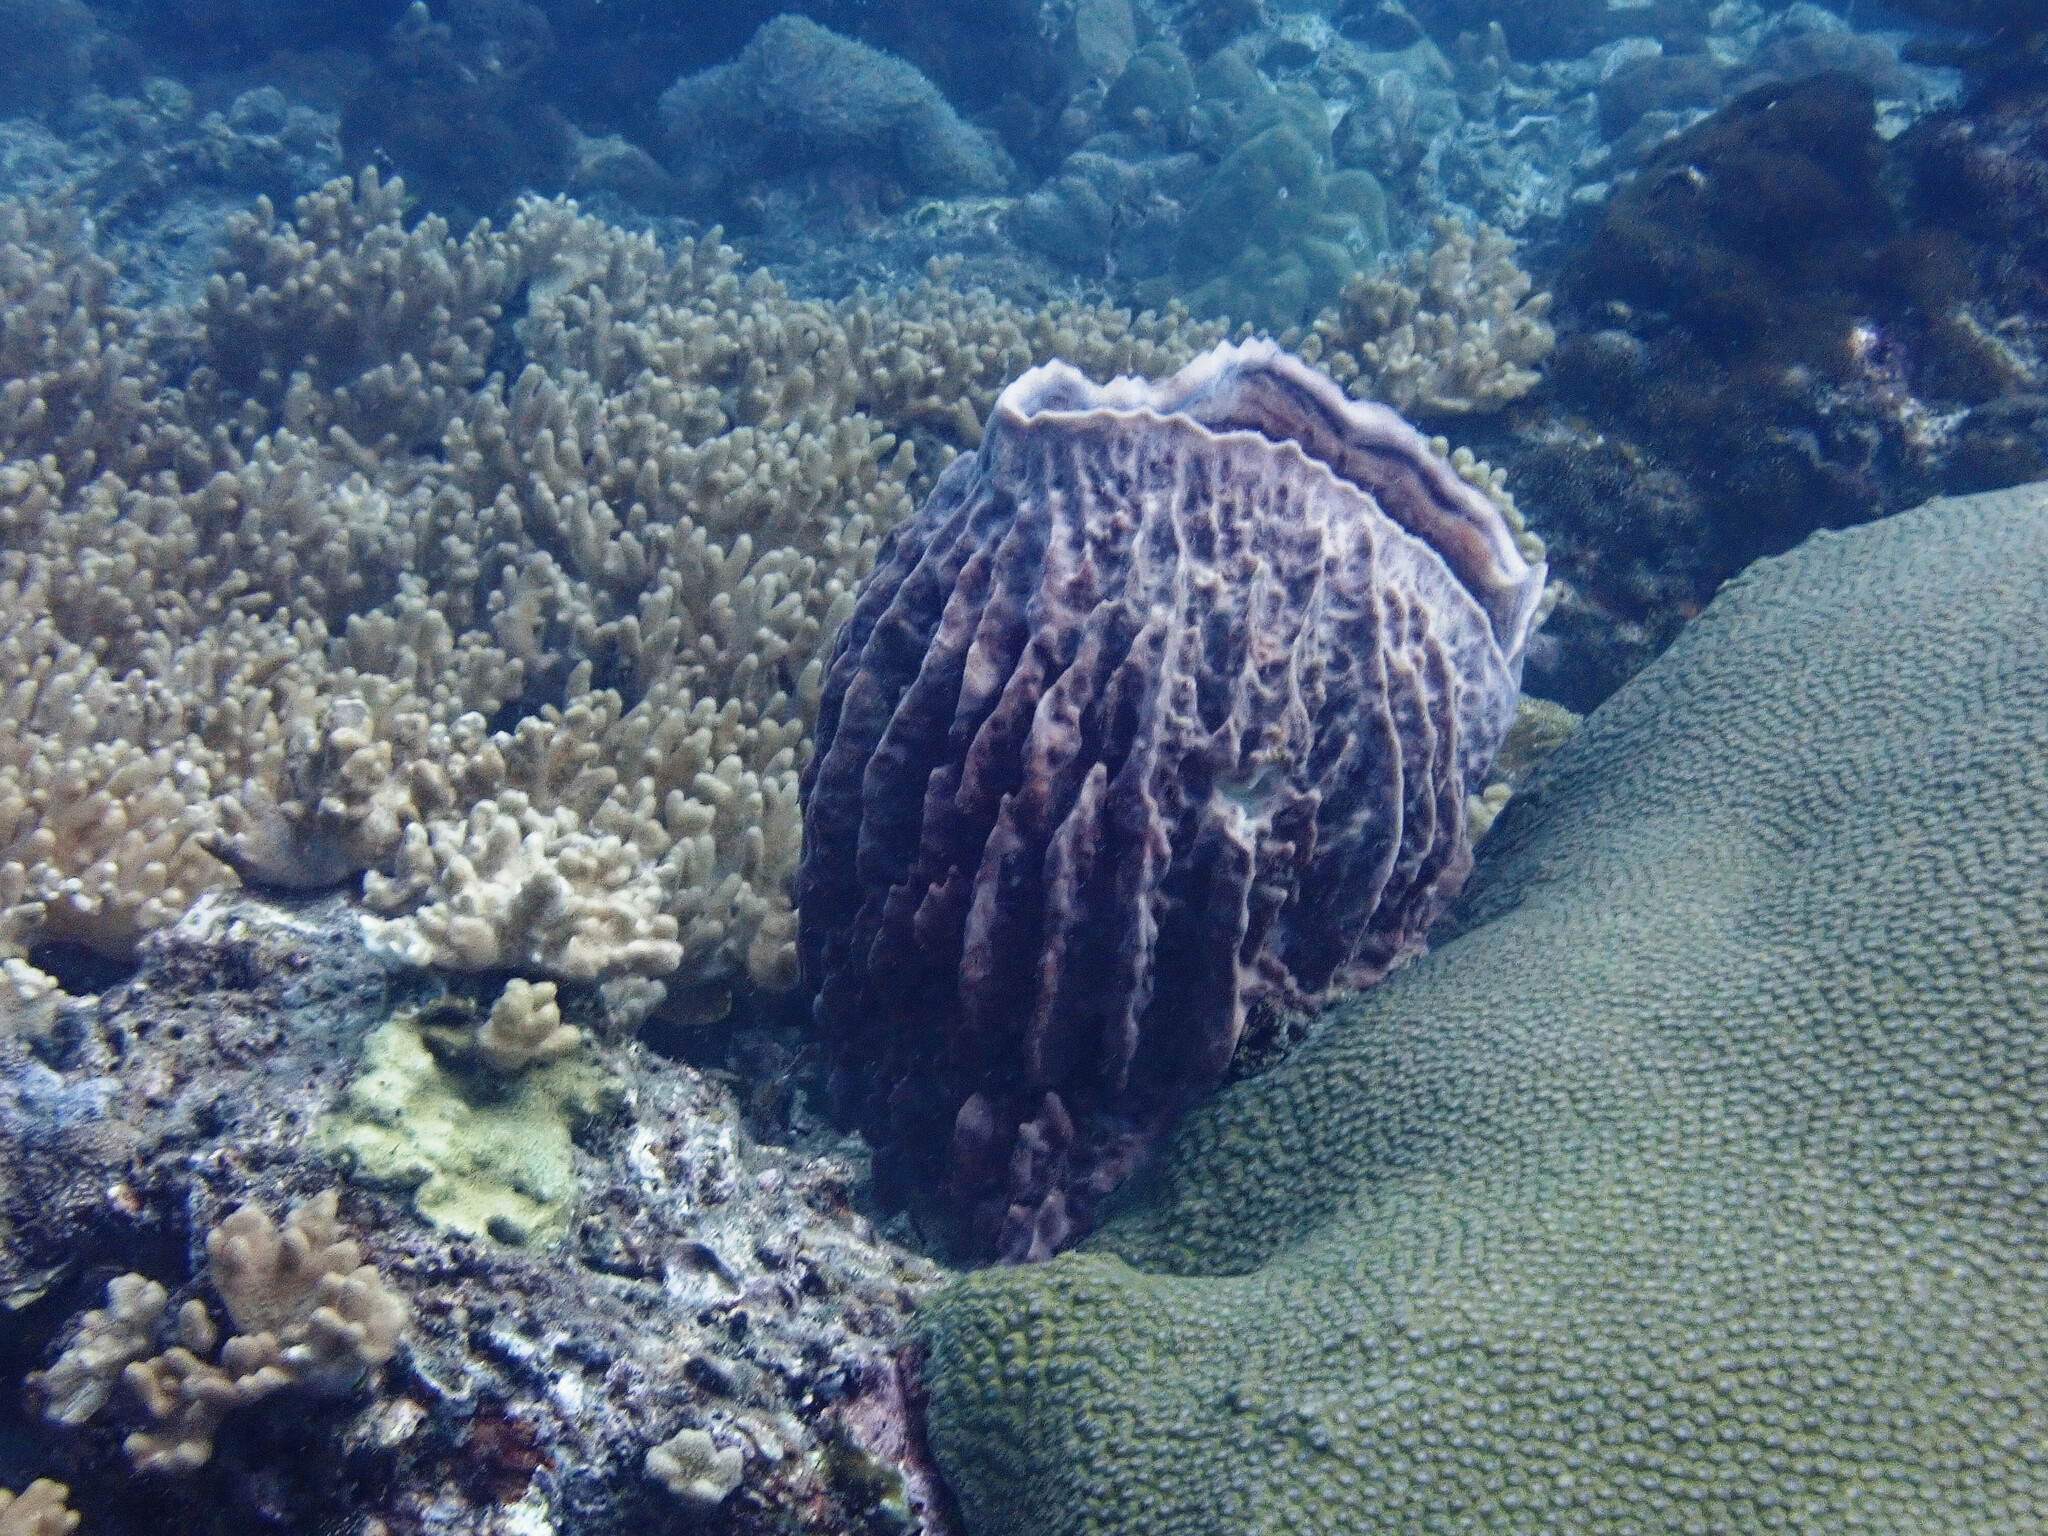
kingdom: Animalia
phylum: Porifera
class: Demospongiae
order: Haplosclerida
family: Petrosiidae
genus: Xestospongia
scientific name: Xestospongia testudinaria
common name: Barrel sponge
